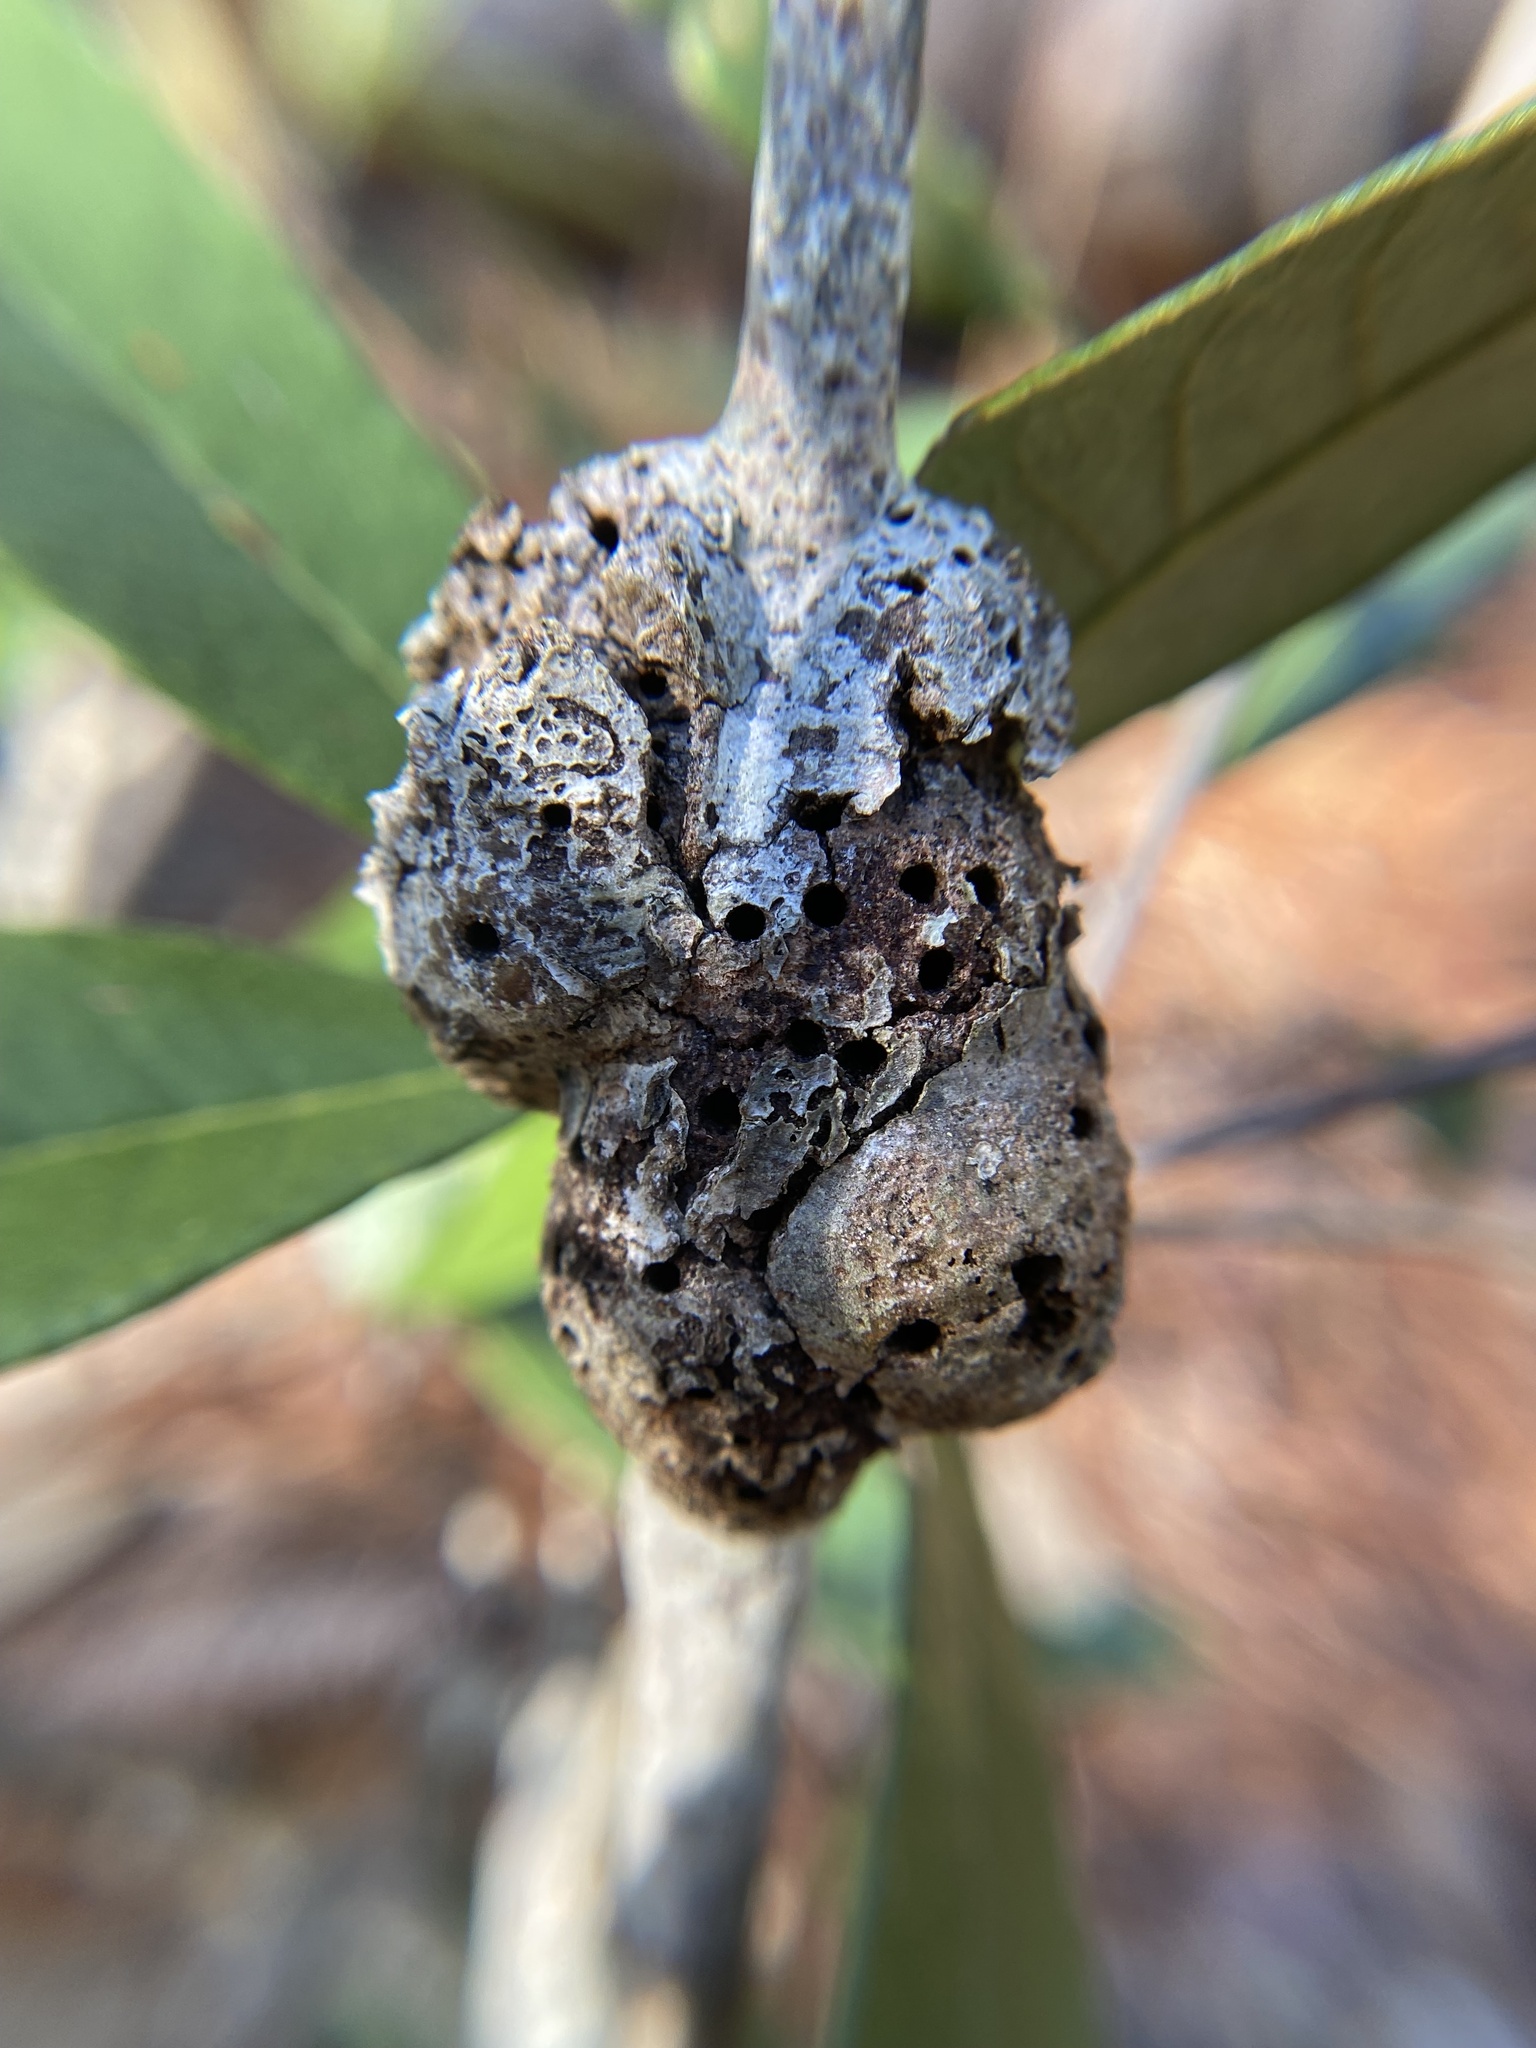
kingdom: Animalia
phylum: Arthropoda
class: Insecta
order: Hymenoptera
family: Cynipidae
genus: Callirhytis
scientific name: Callirhytis
